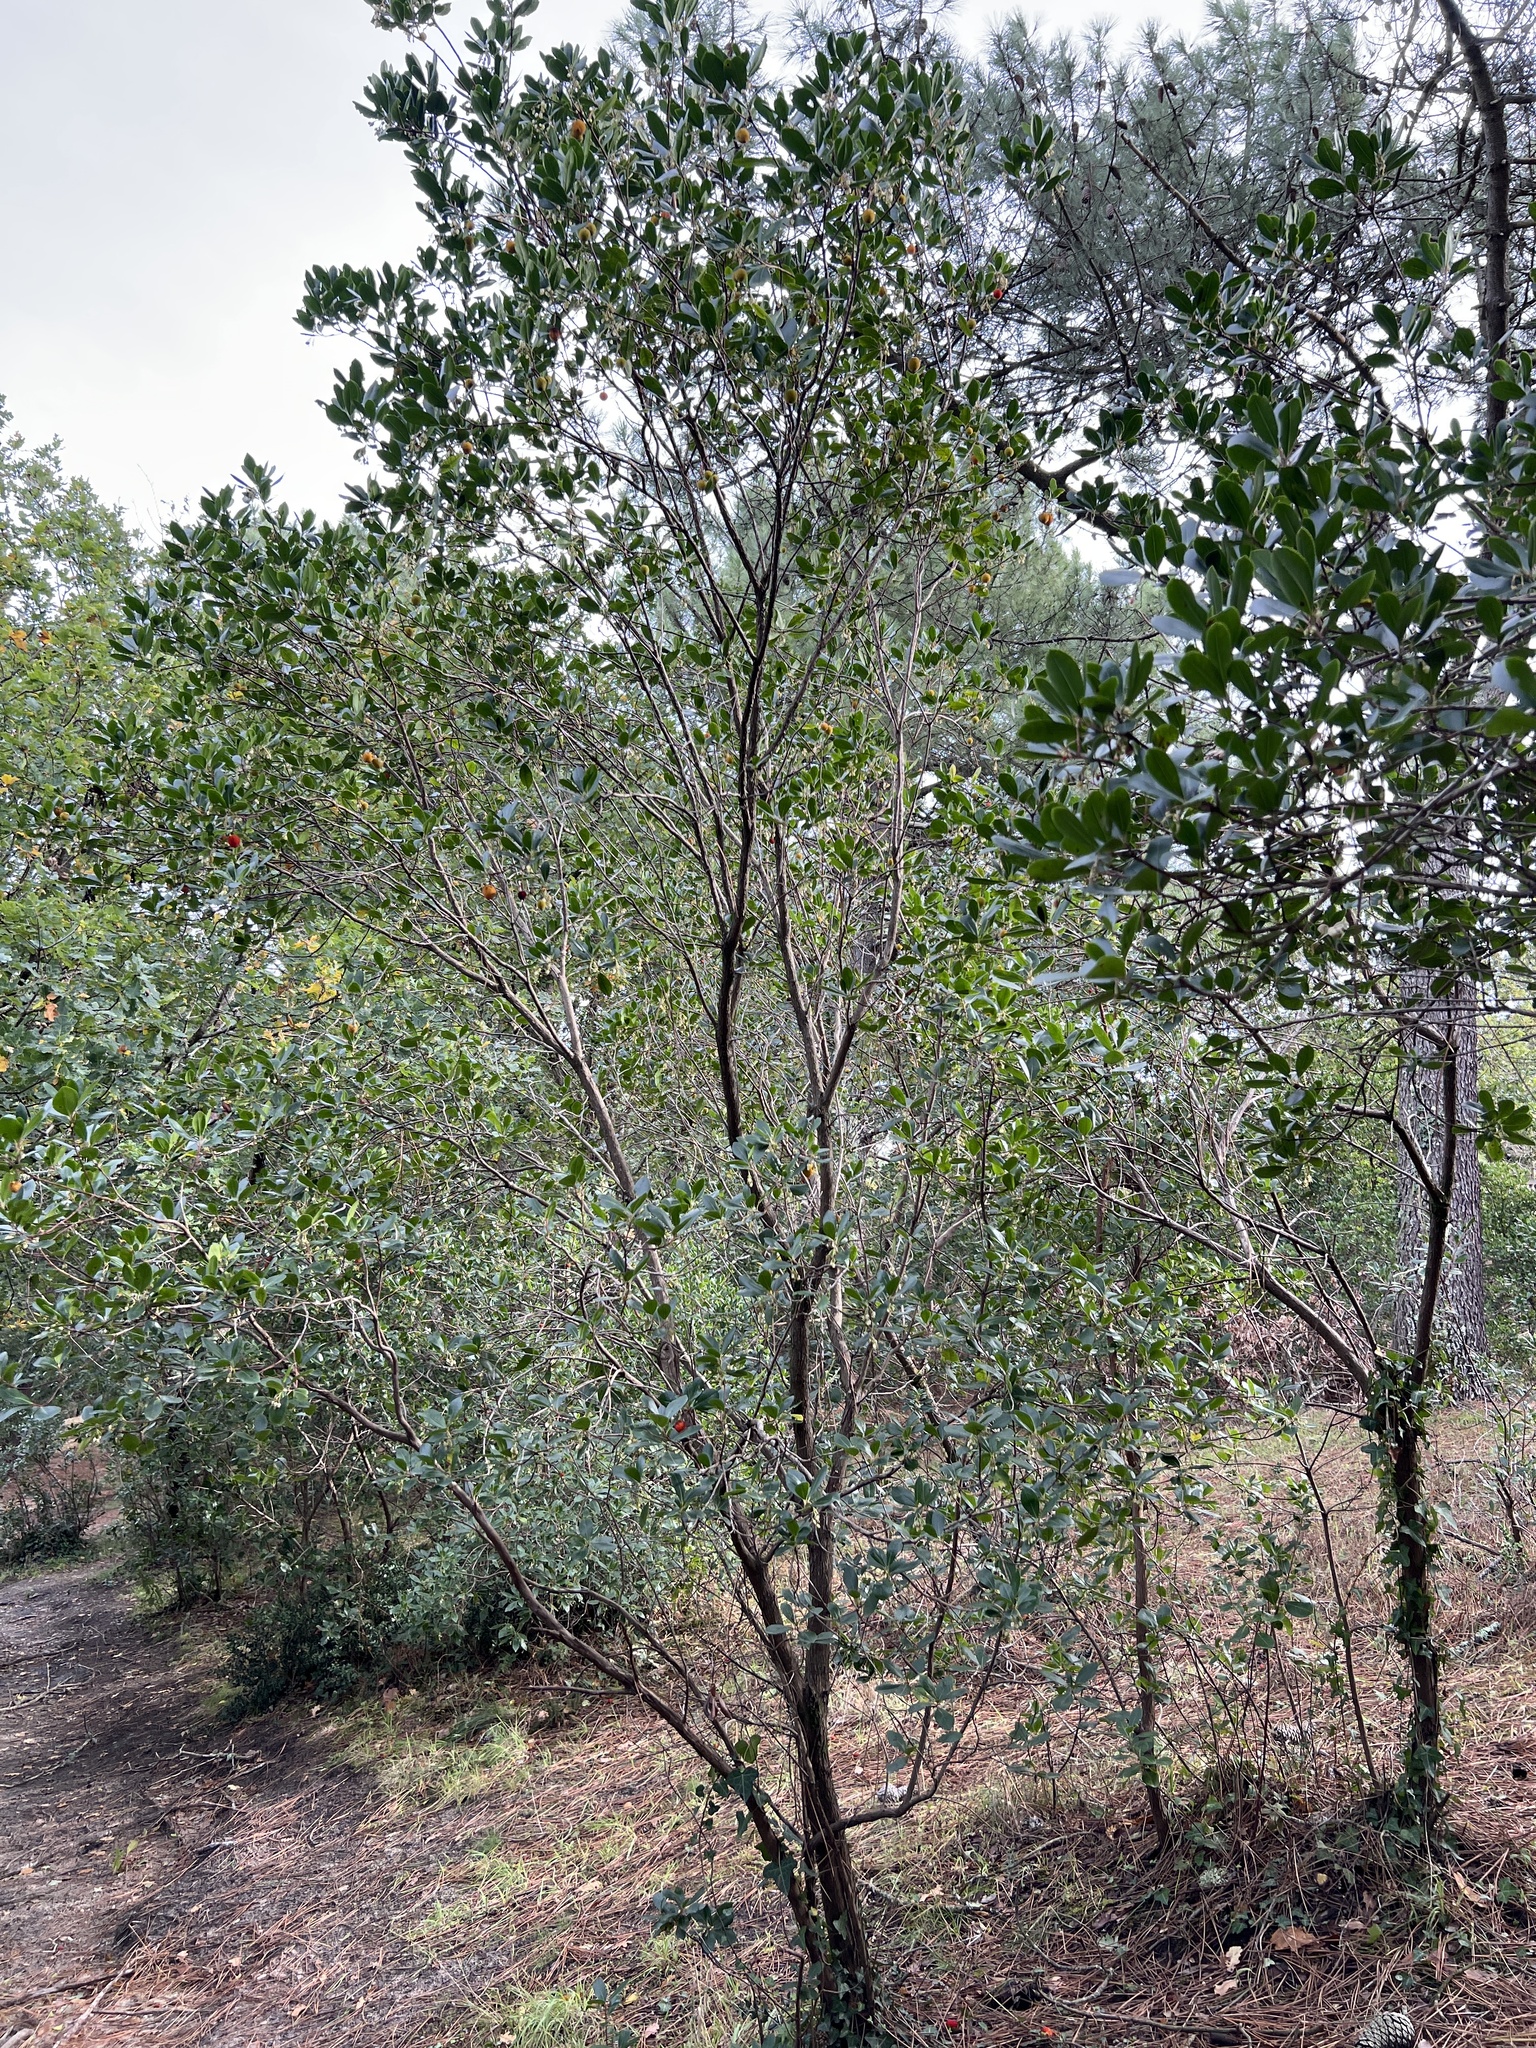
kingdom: Plantae
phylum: Tracheophyta
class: Magnoliopsida
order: Ericales
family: Ericaceae
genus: Arbutus
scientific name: Arbutus unedo
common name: Strawberry-tree
